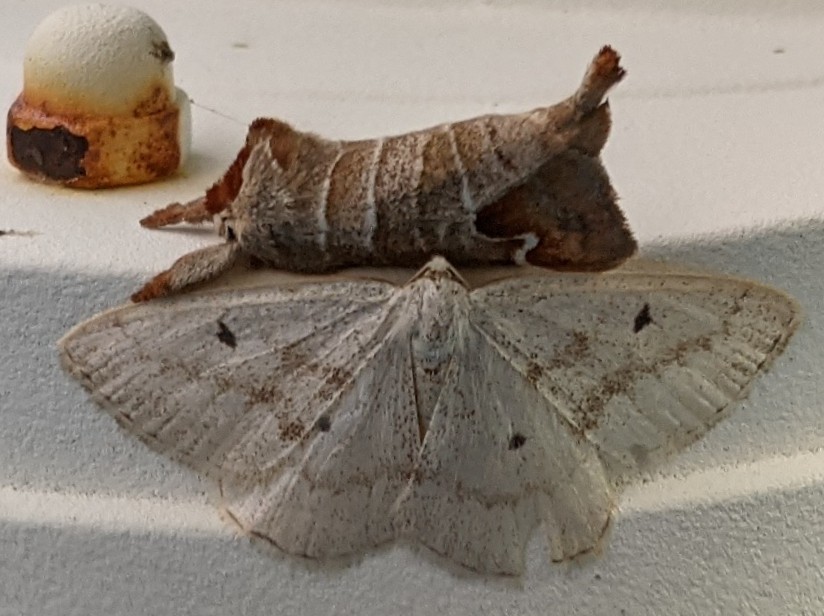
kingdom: Animalia
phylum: Arthropoda
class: Insecta
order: Lepidoptera
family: Geometridae
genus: Lomographa
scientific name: Lomographa glomeraria
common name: Gray spring moth
